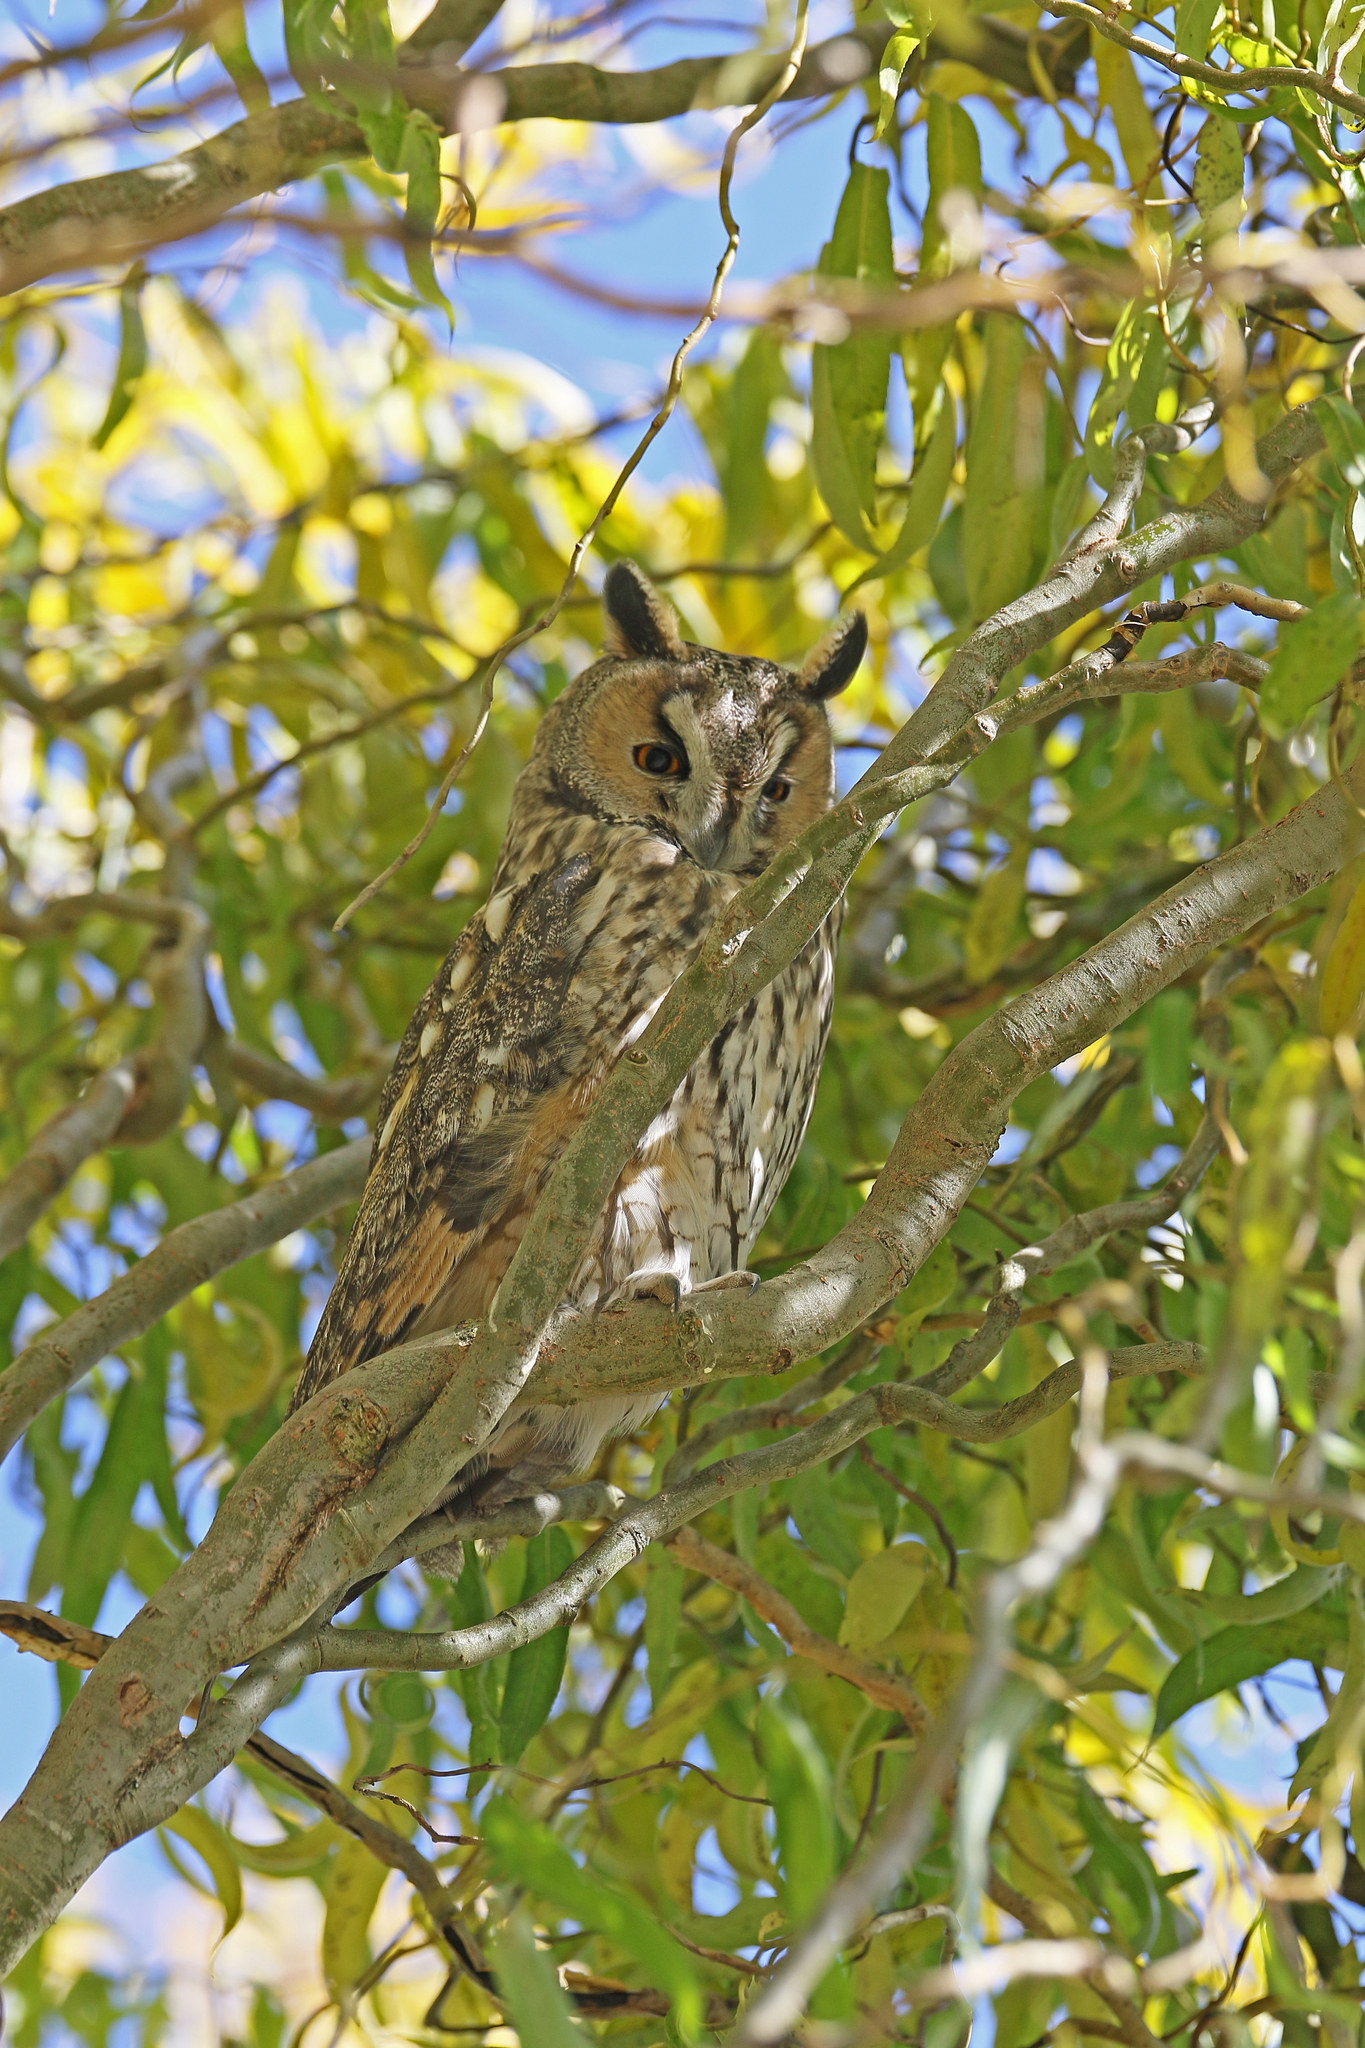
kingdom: Animalia
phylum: Chordata
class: Aves
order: Strigiformes
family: Strigidae
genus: Asio
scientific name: Asio otus
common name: Long-eared owl
